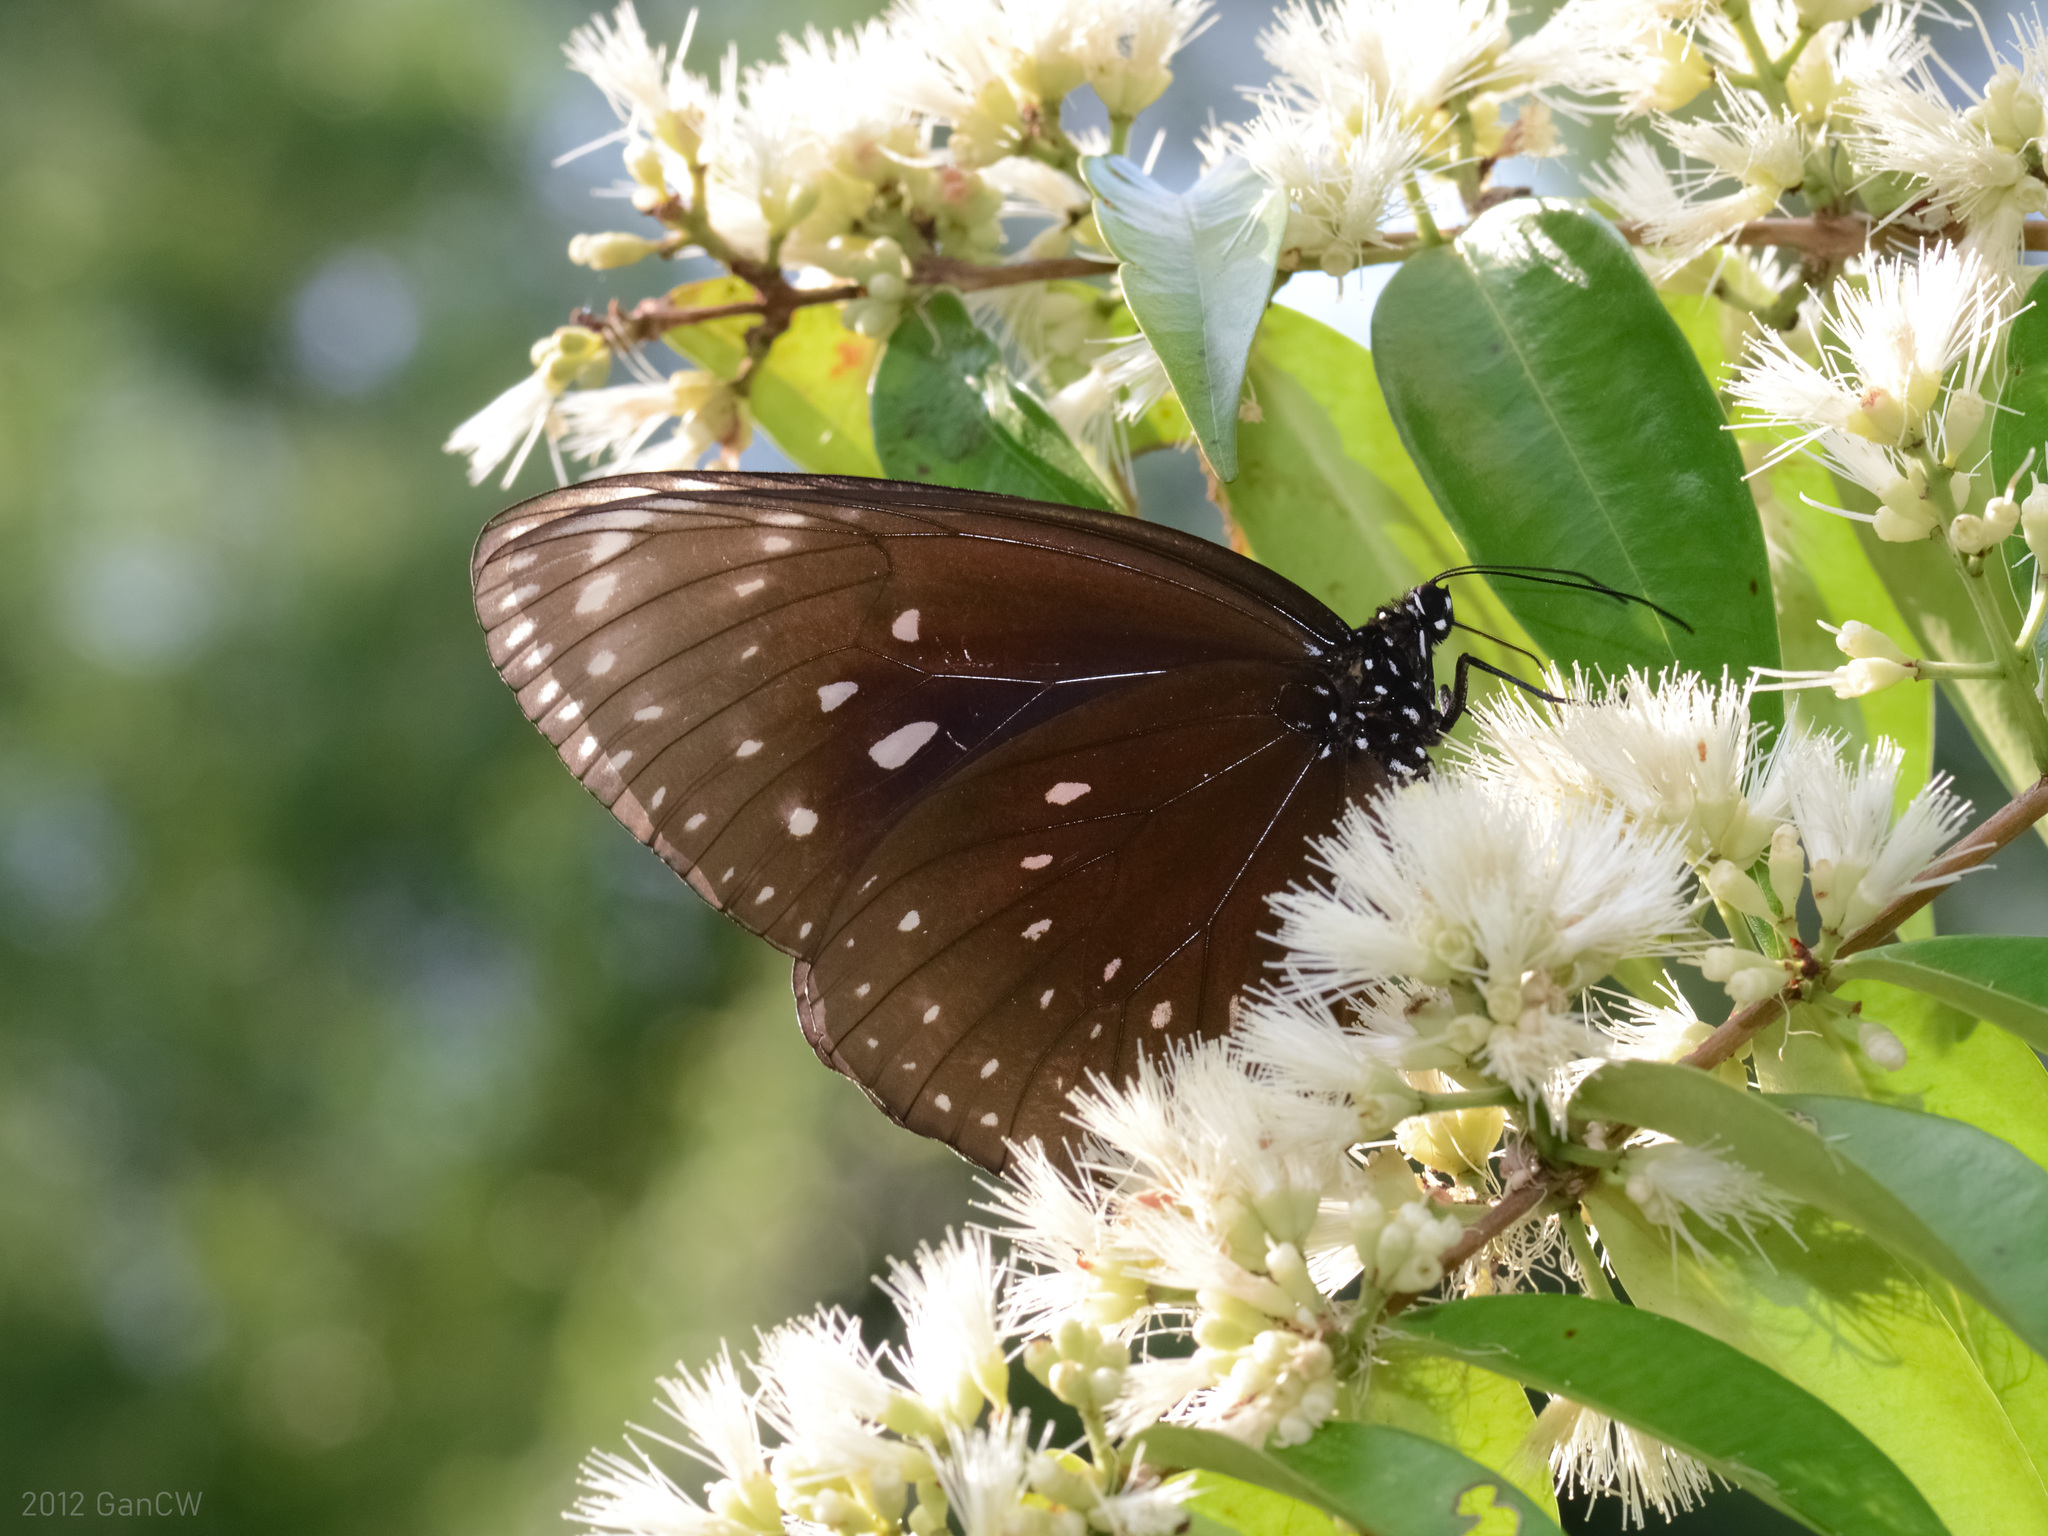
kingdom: Animalia
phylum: Arthropoda
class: Insecta
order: Lepidoptera
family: Nymphalidae
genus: Euploea
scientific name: Euploea phaenareta
